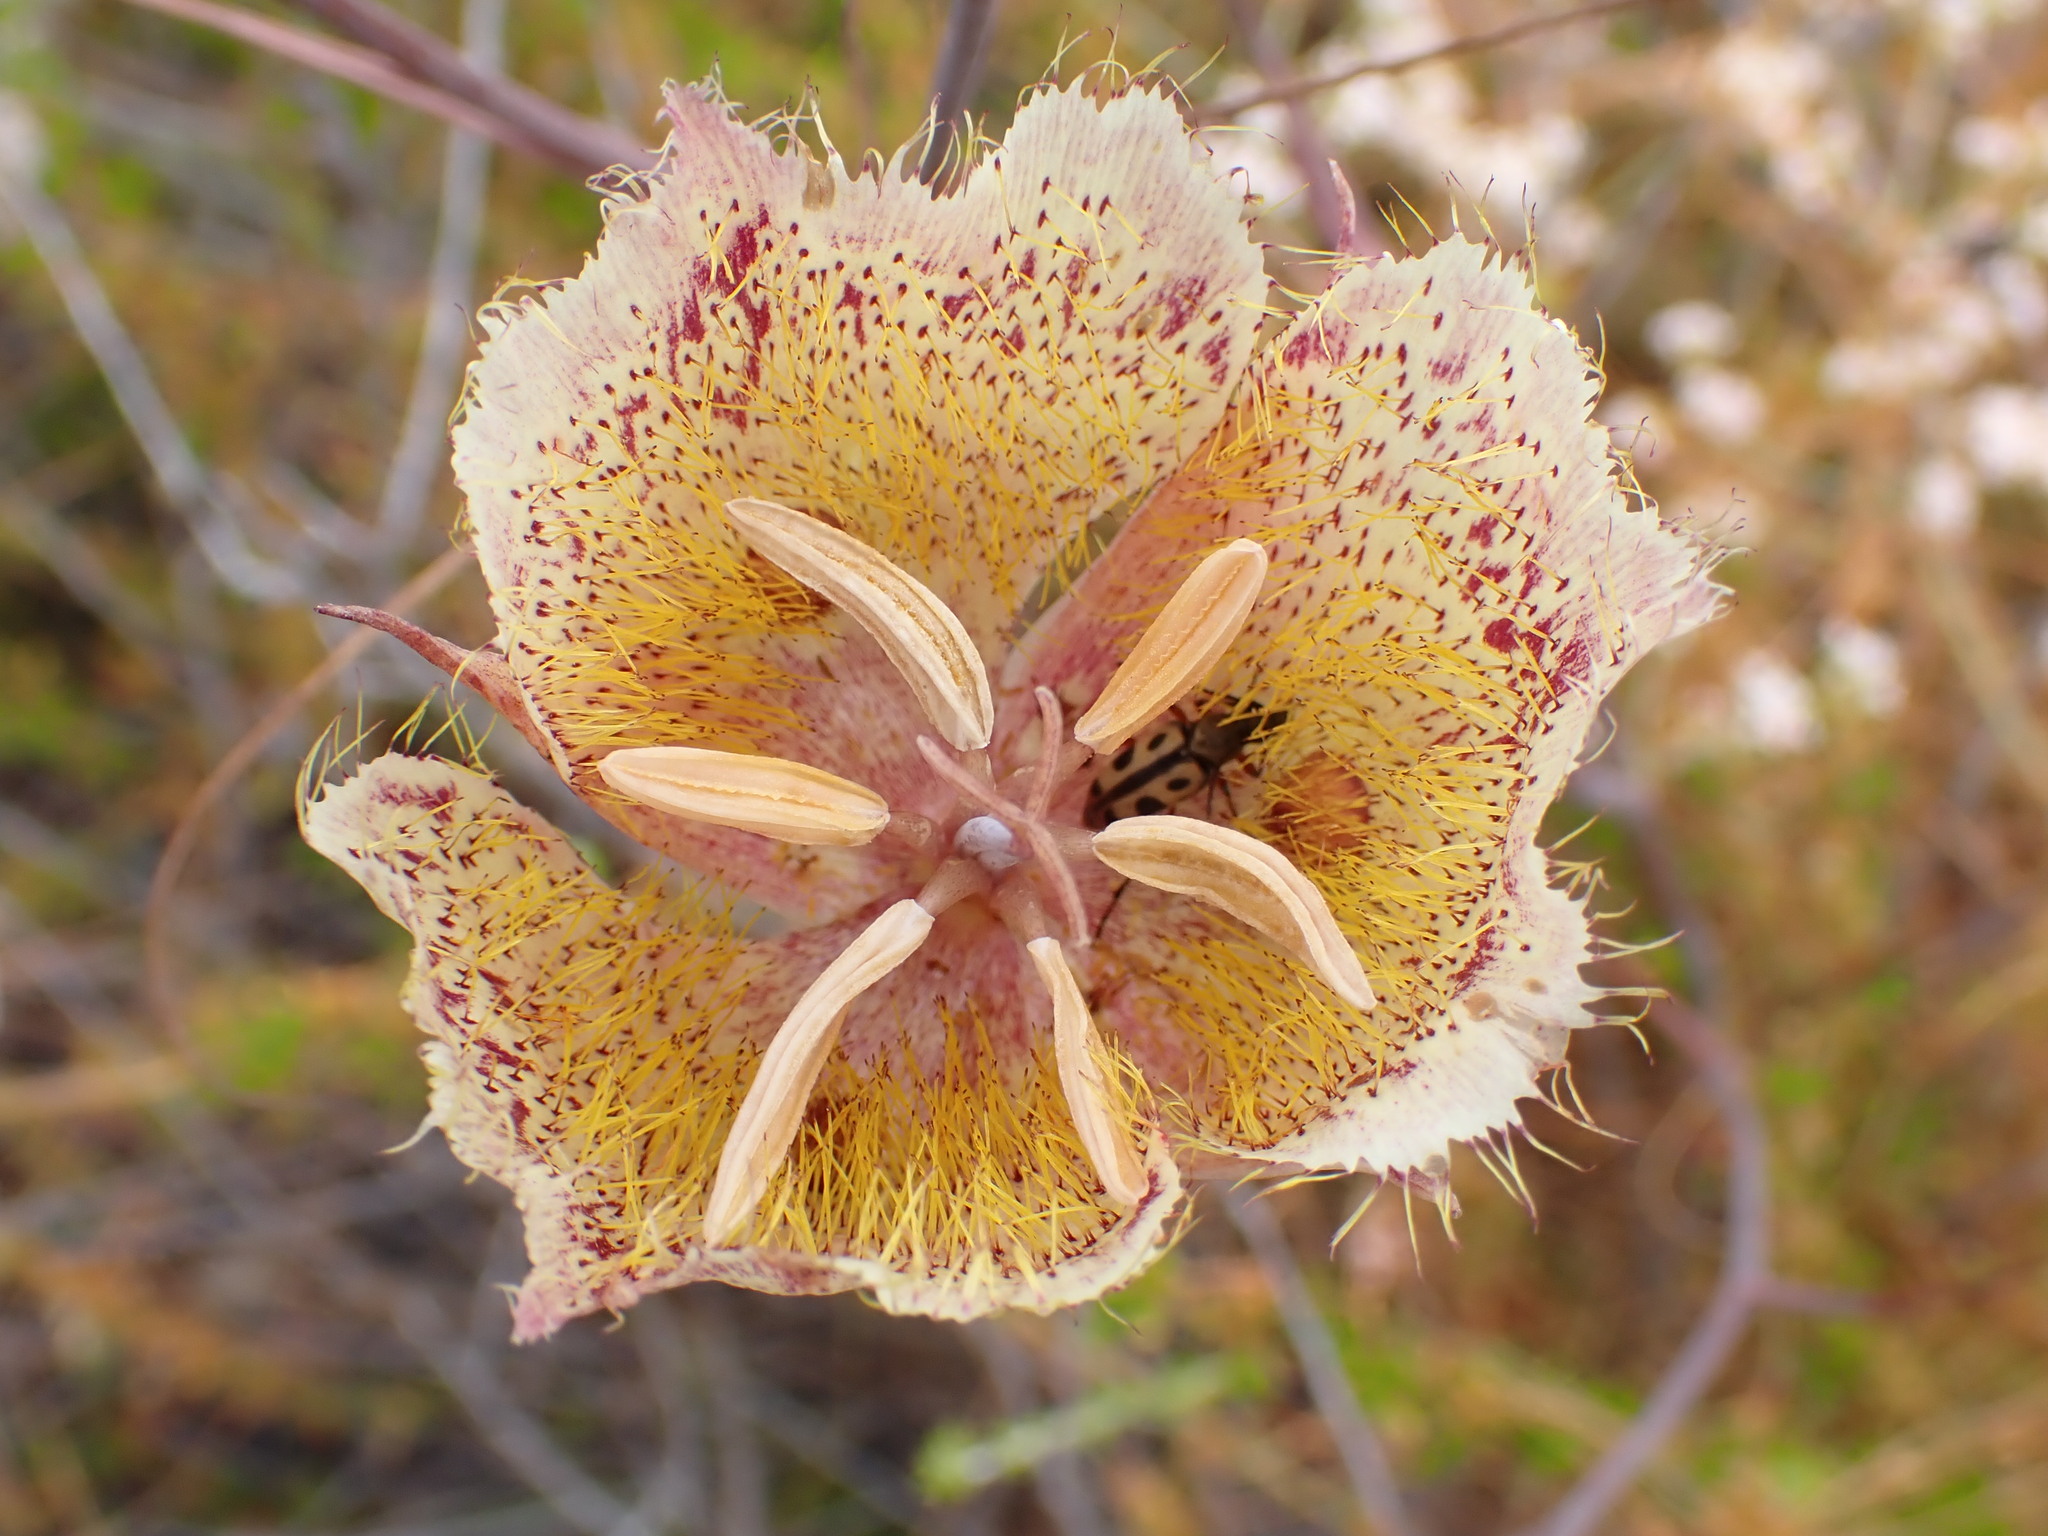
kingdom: Plantae
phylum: Tracheophyta
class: Liliopsida
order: Liliales
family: Liliaceae
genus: Calochortus
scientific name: Calochortus weedii
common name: Weed's mariposa-lily
